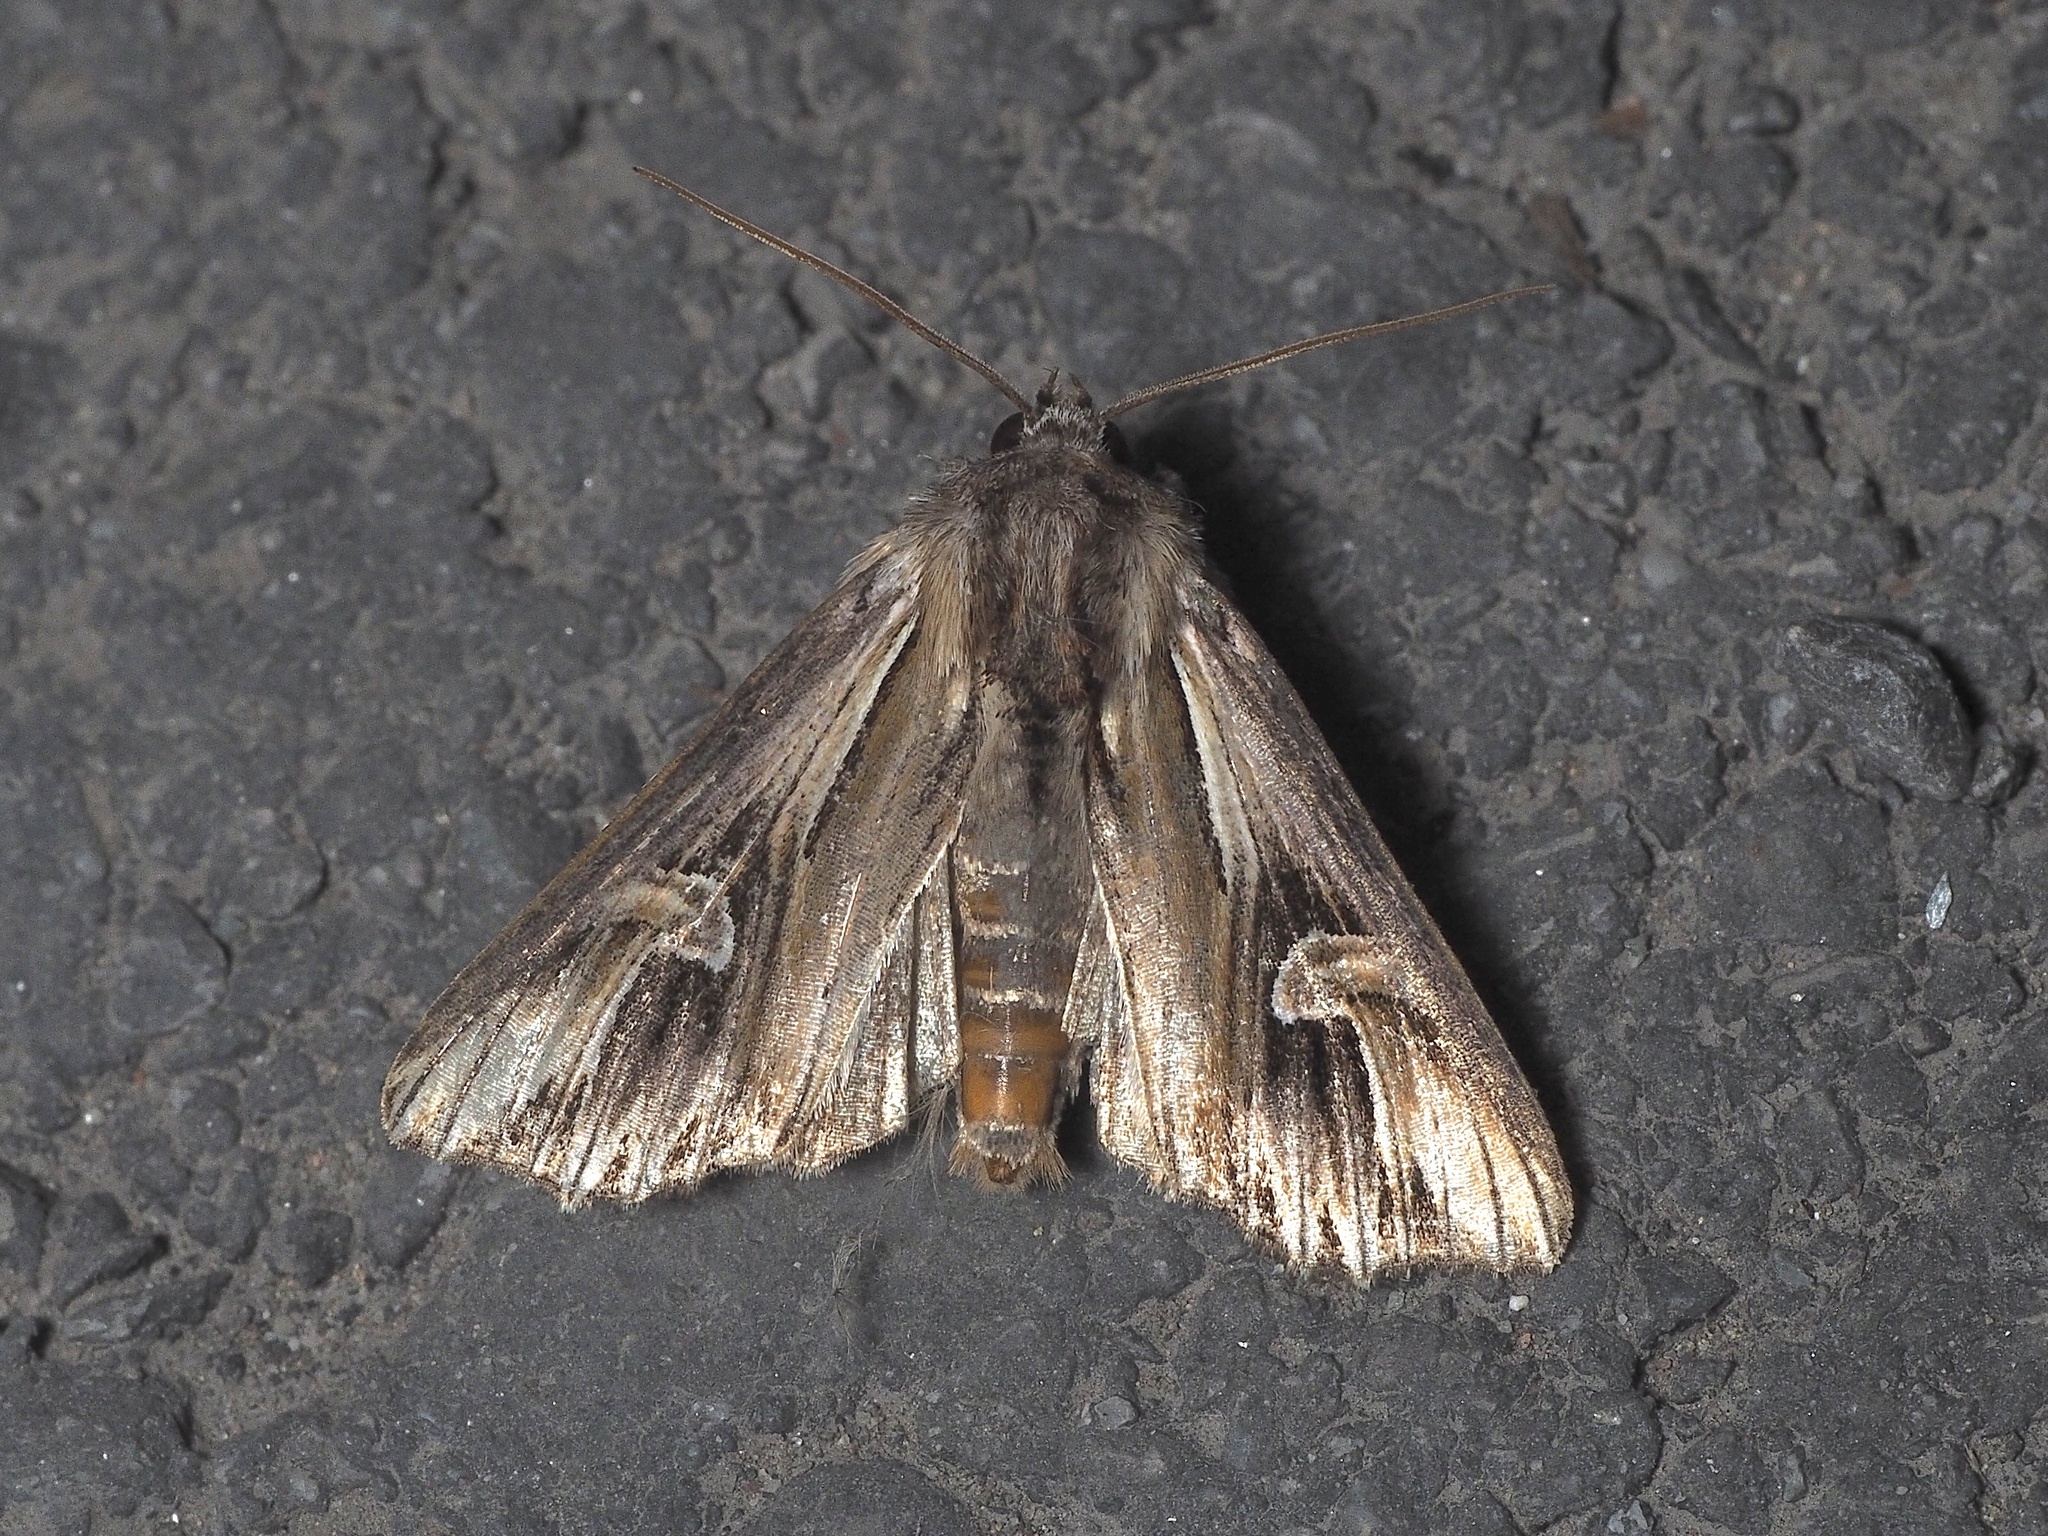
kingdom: Animalia
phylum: Arthropoda
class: Insecta
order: Lepidoptera
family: Noctuidae
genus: Actinotia
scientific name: Actinotia polyodon
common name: Purple cloud
